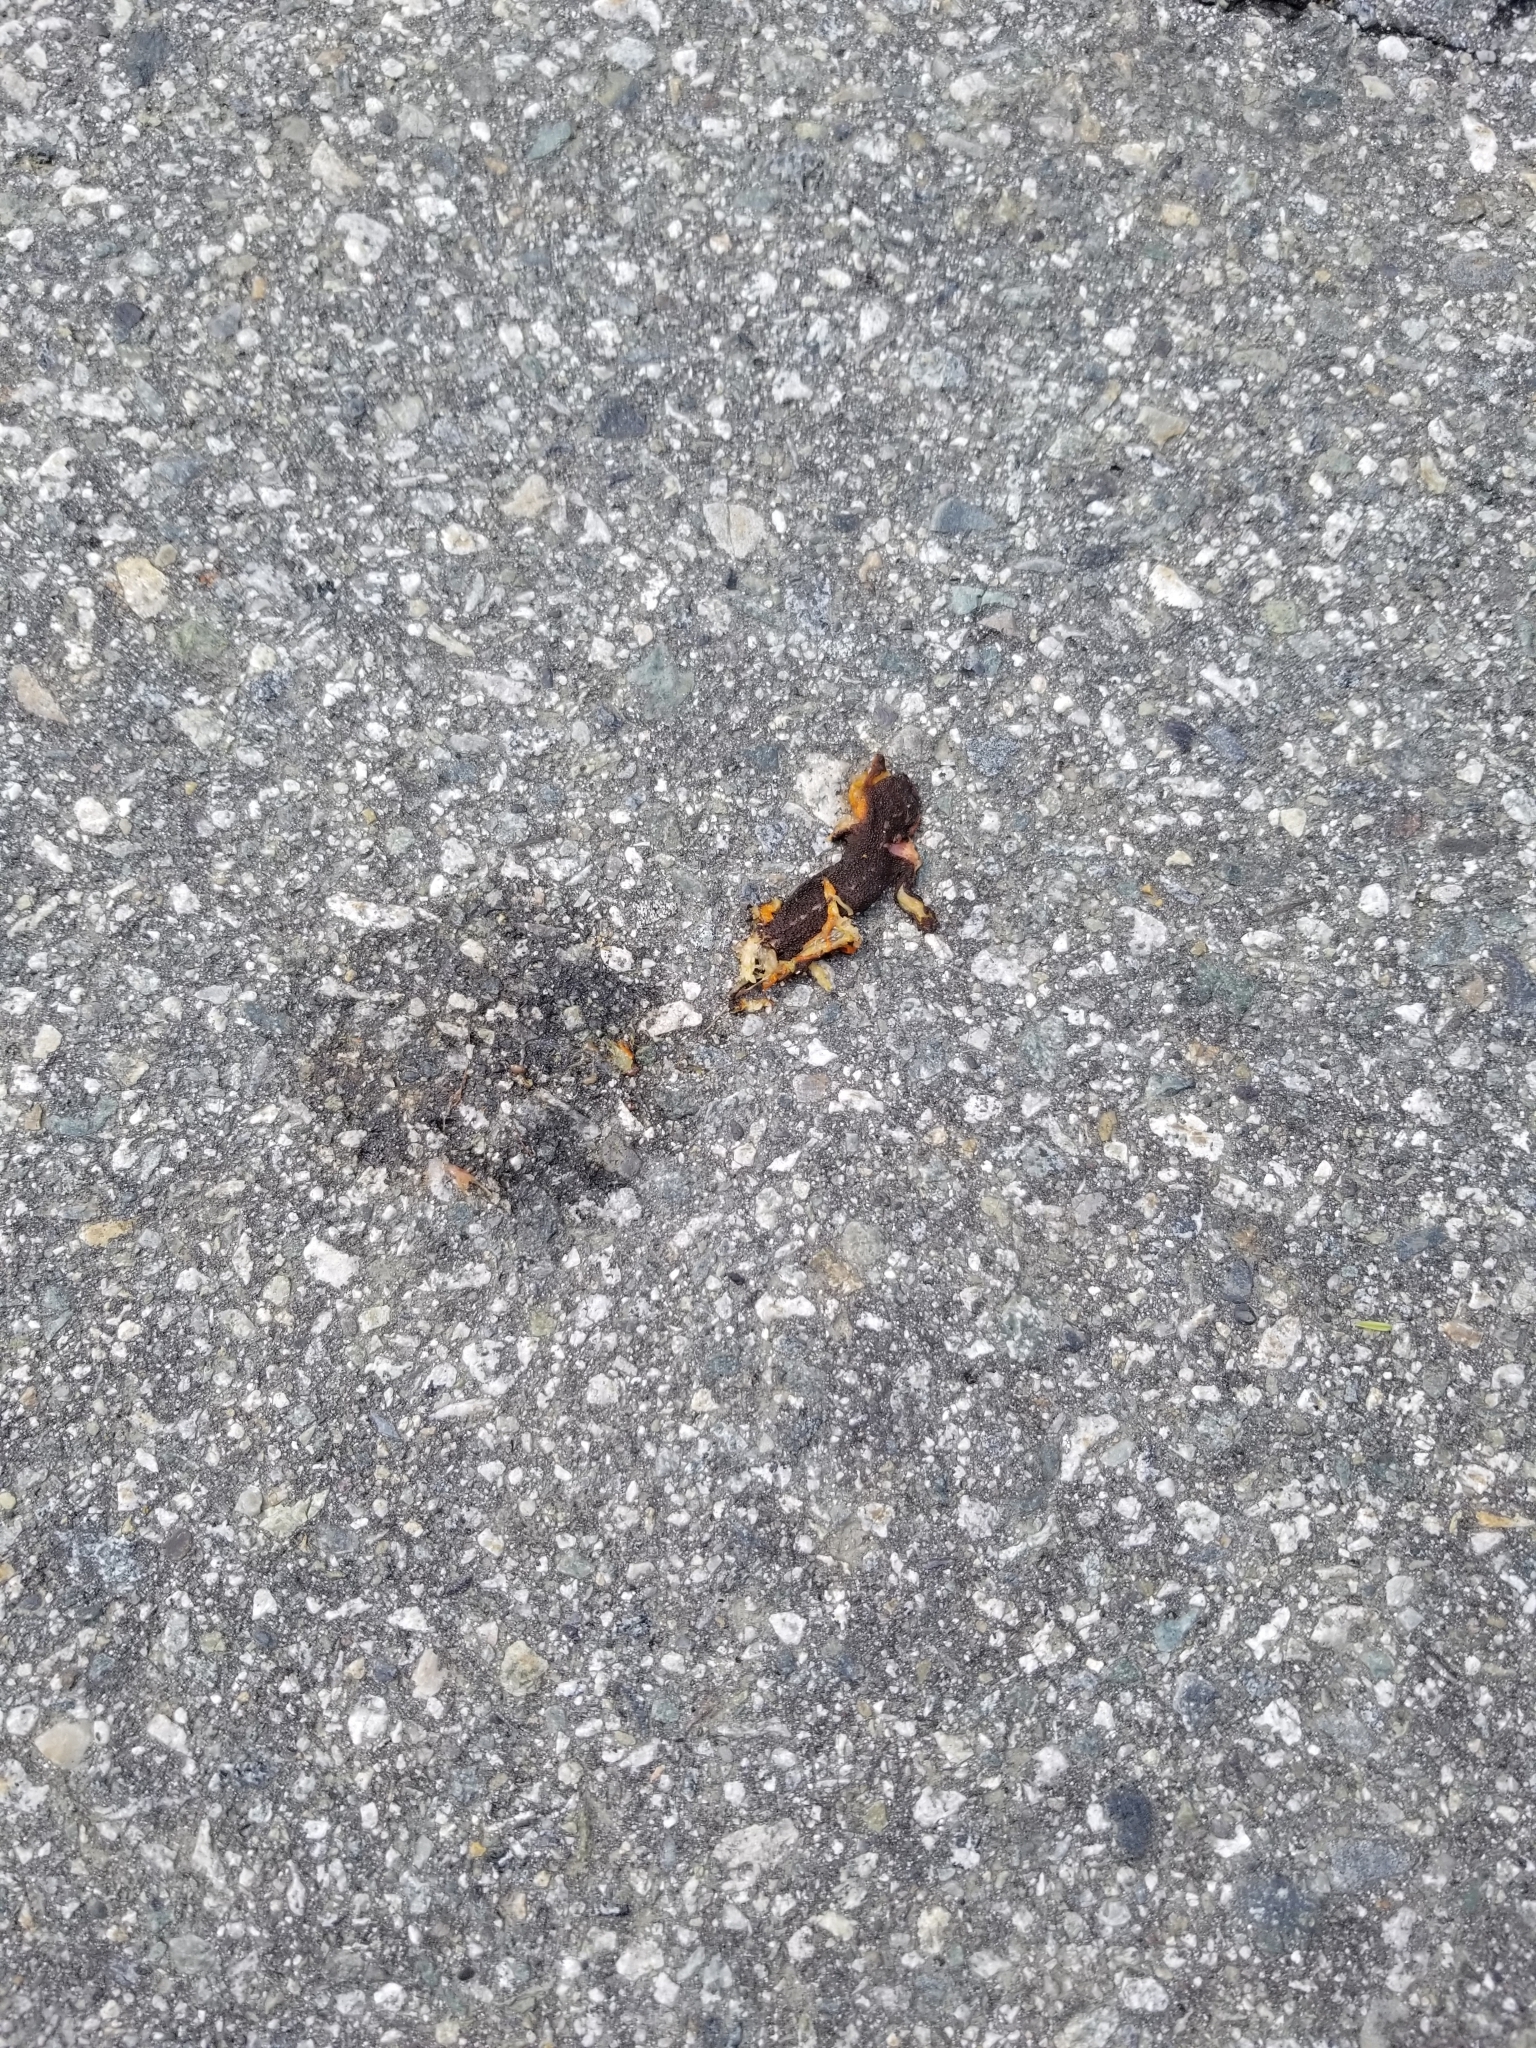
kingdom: Animalia
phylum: Chordata
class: Amphibia
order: Caudata
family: Salamandridae
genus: Taricha
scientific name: Taricha granulosa
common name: Roughskin newt
